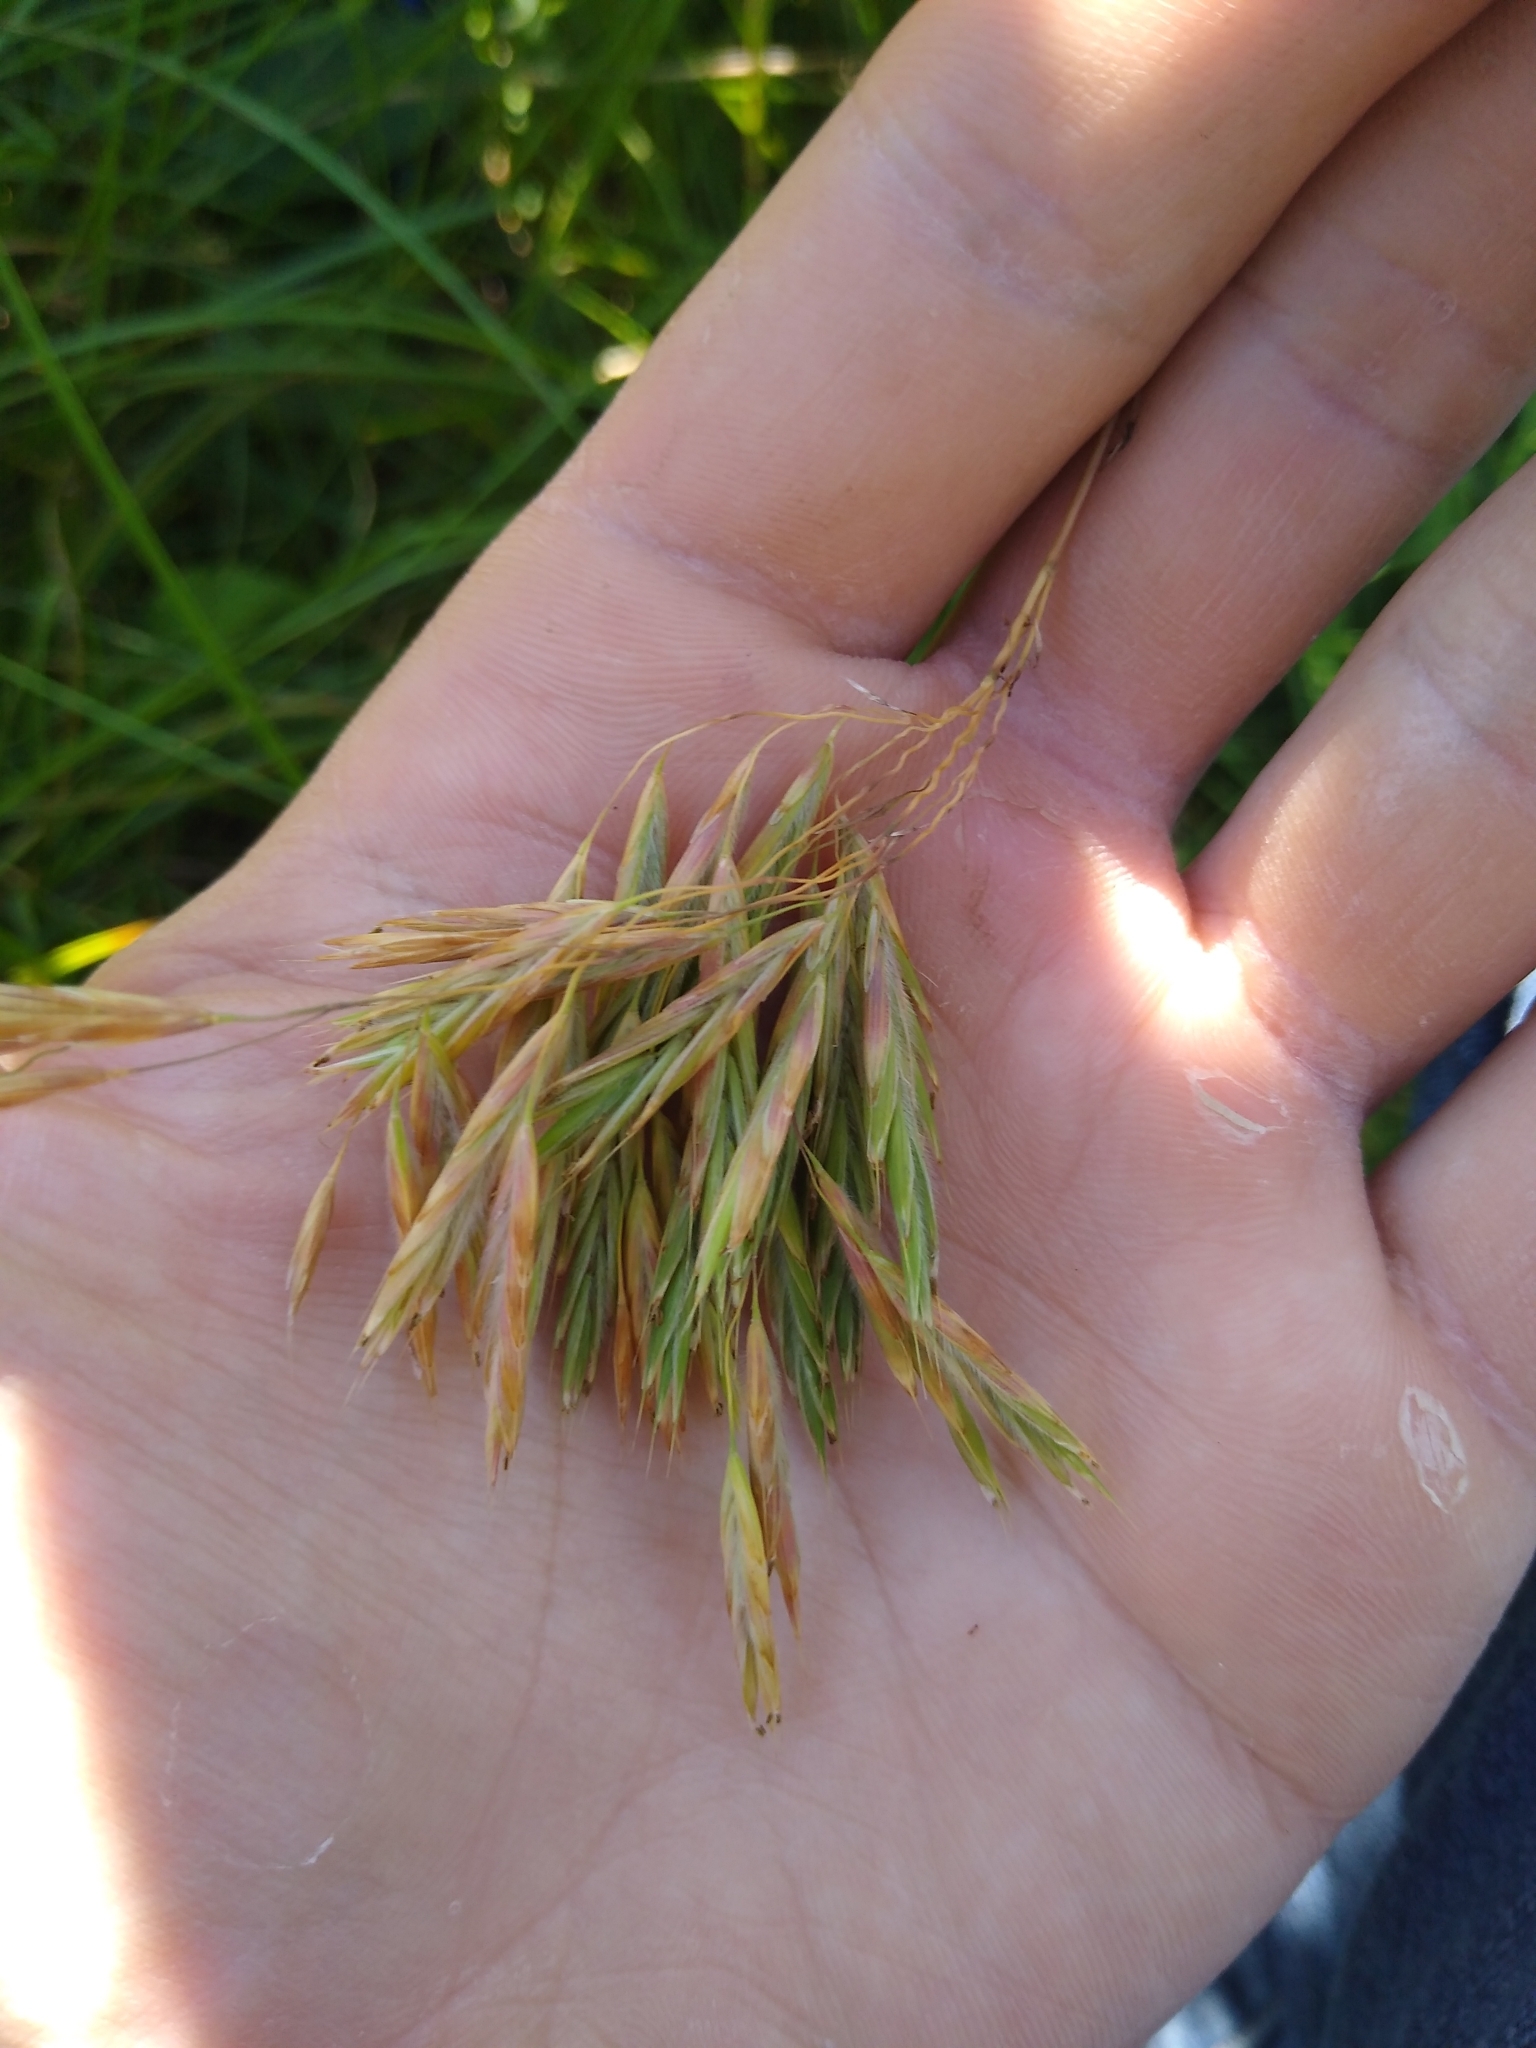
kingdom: Plantae
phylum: Tracheophyta
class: Liliopsida
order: Poales
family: Poaceae
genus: Bromus
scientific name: Bromus inermis
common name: Smooth brome
